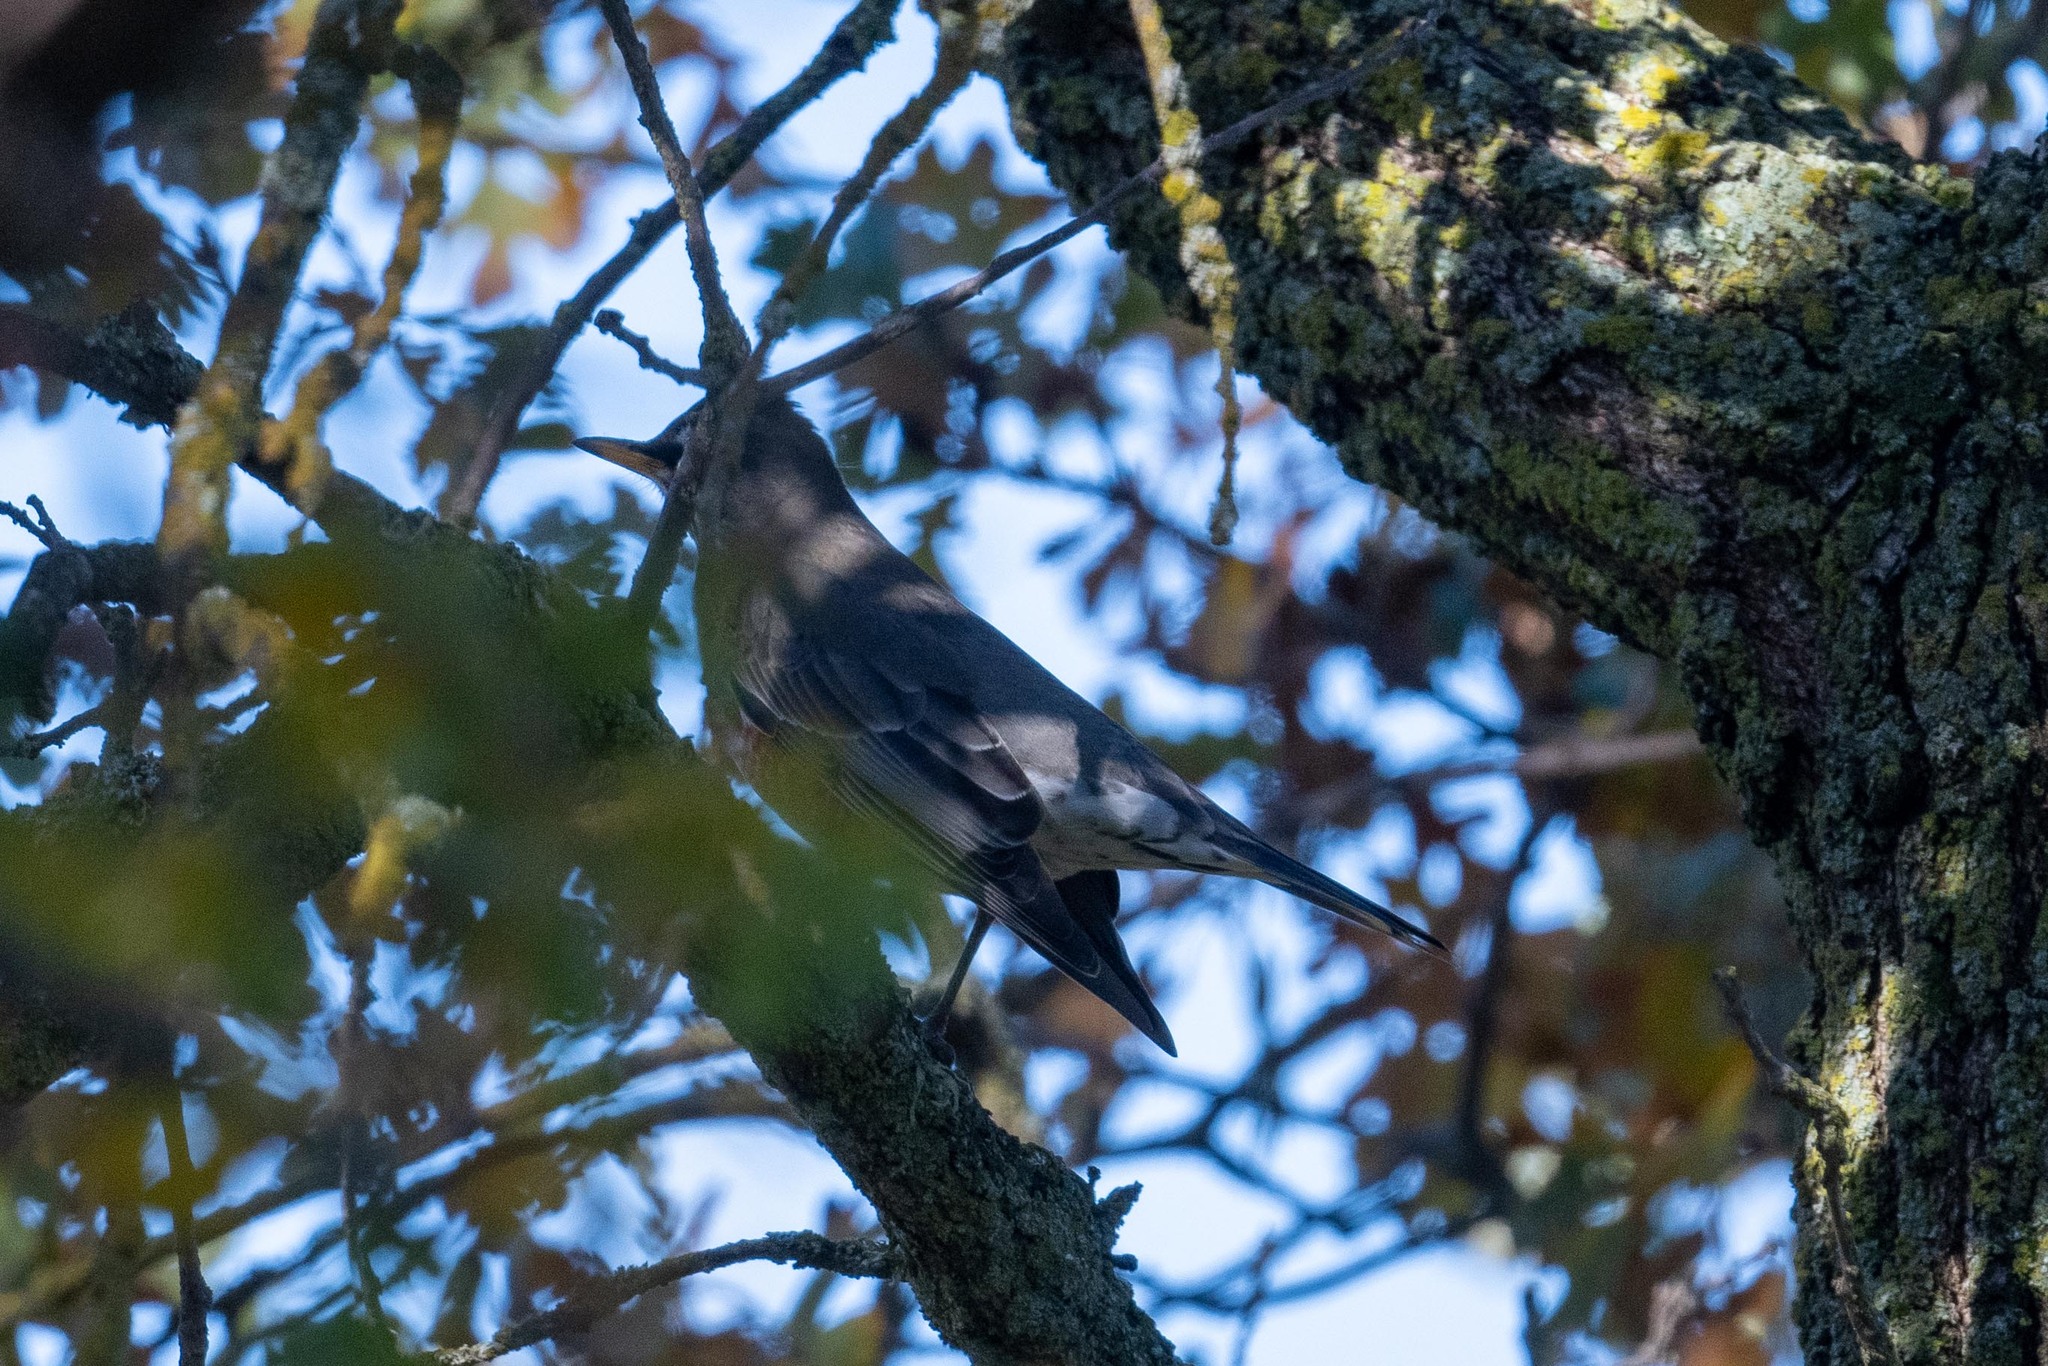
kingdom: Animalia
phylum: Chordata
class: Aves
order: Passeriformes
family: Turdidae
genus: Turdus
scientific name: Turdus migratorius
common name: American robin
